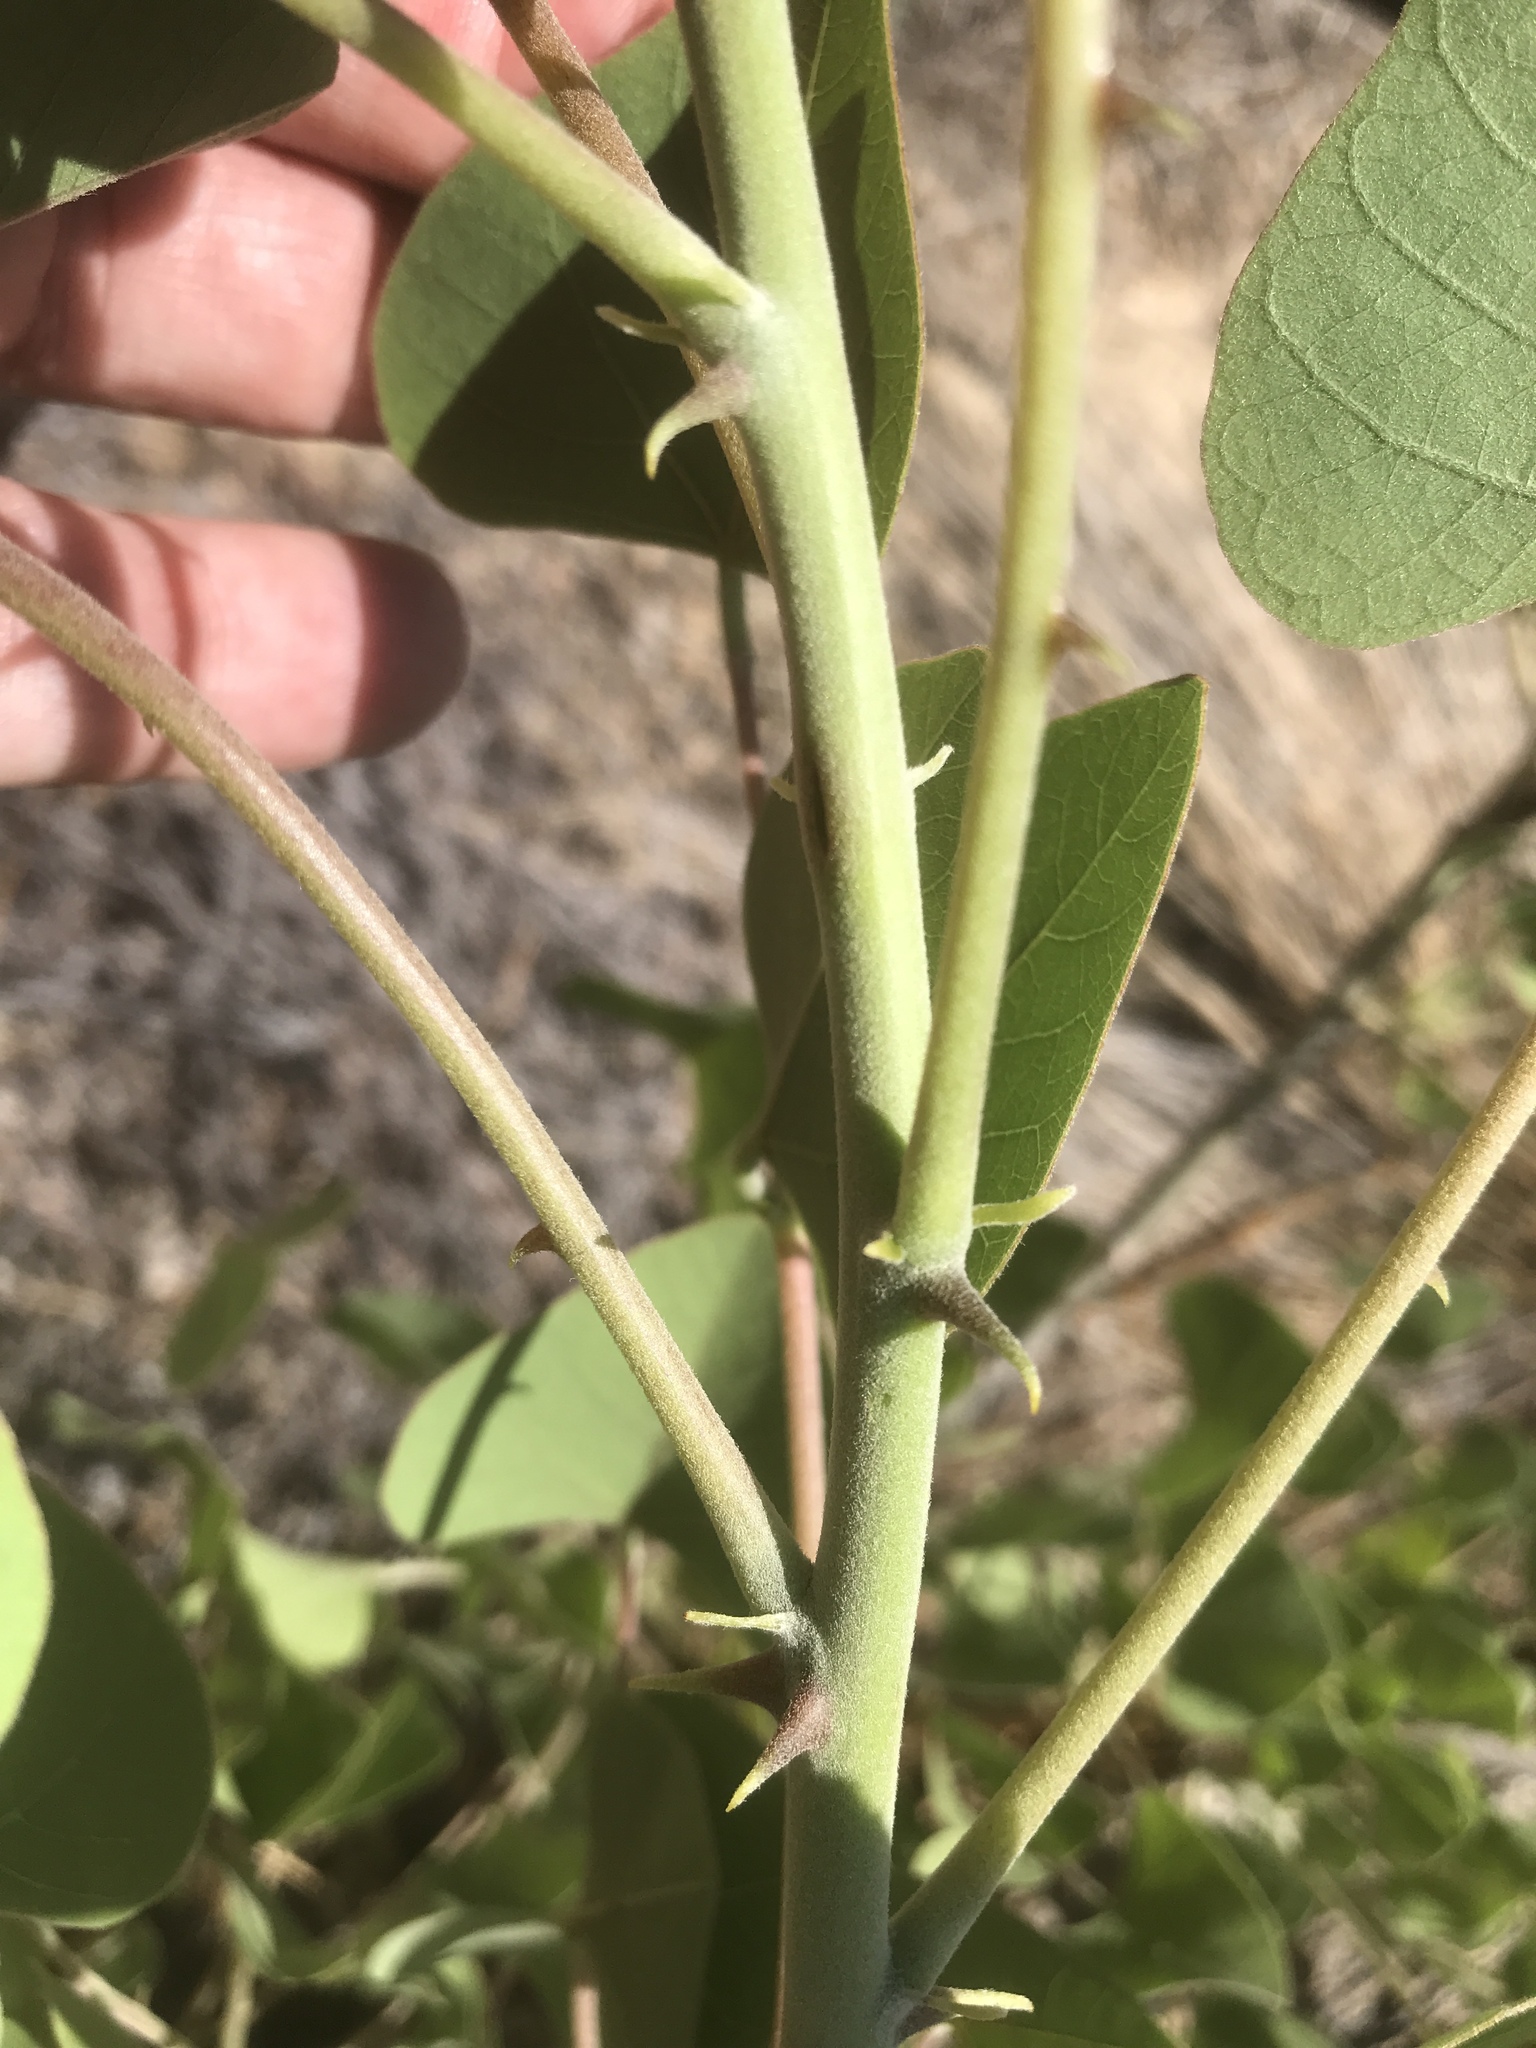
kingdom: Plantae
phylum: Tracheophyta
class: Magnoliopsida
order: Fabales
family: Fabaceae
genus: Erythrina
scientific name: Erythrina flabelliformis
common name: Chilicote
